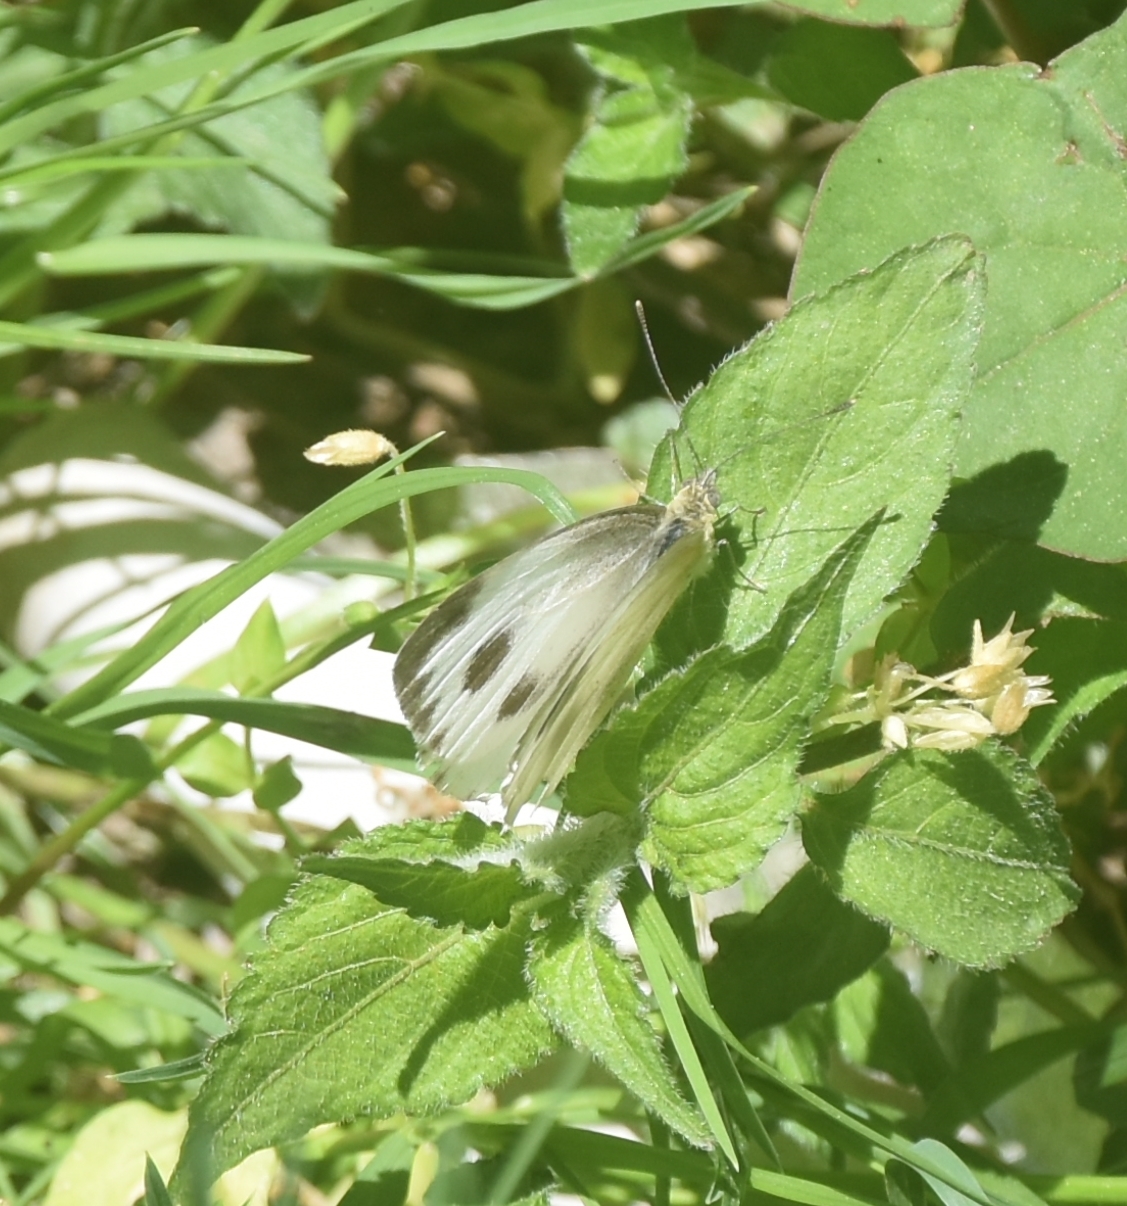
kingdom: Animalia
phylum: Arthropoda
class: Insecta
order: Lepidoptera
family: Pieridae
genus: Pieris
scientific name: Pieris canidia
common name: Indian cabbage white
